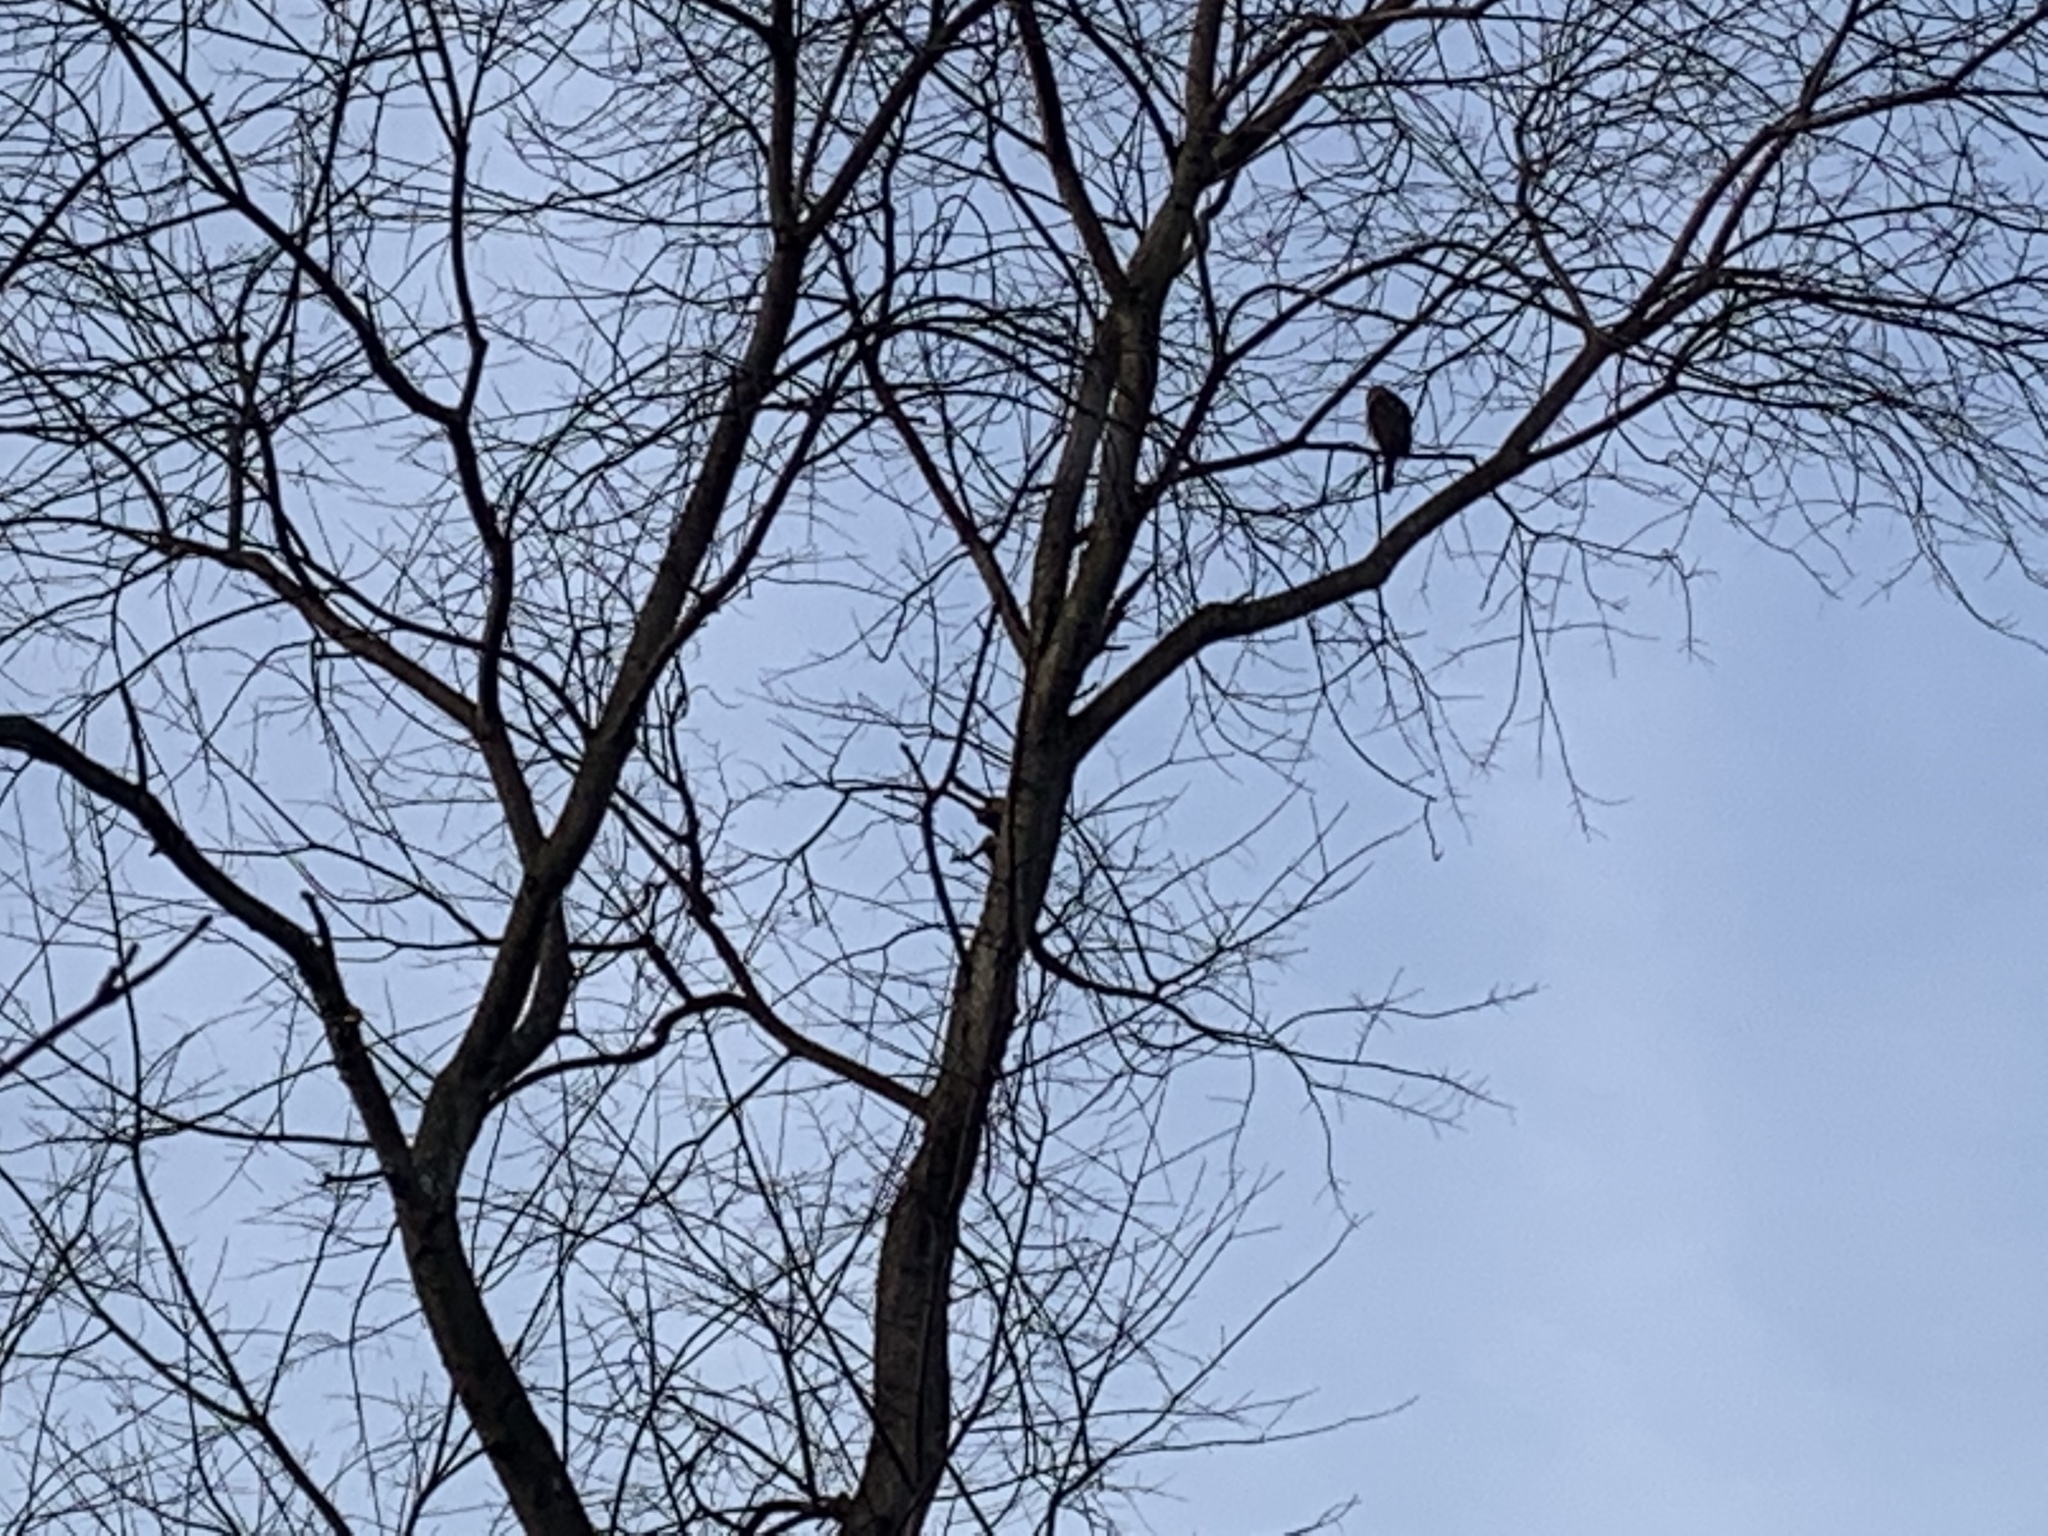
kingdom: Animalia
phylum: Chordata
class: Aves
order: Accipitriformes
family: Accipitridae
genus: Accipiter
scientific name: Accipiter cooperii
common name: Cooper's hawk
